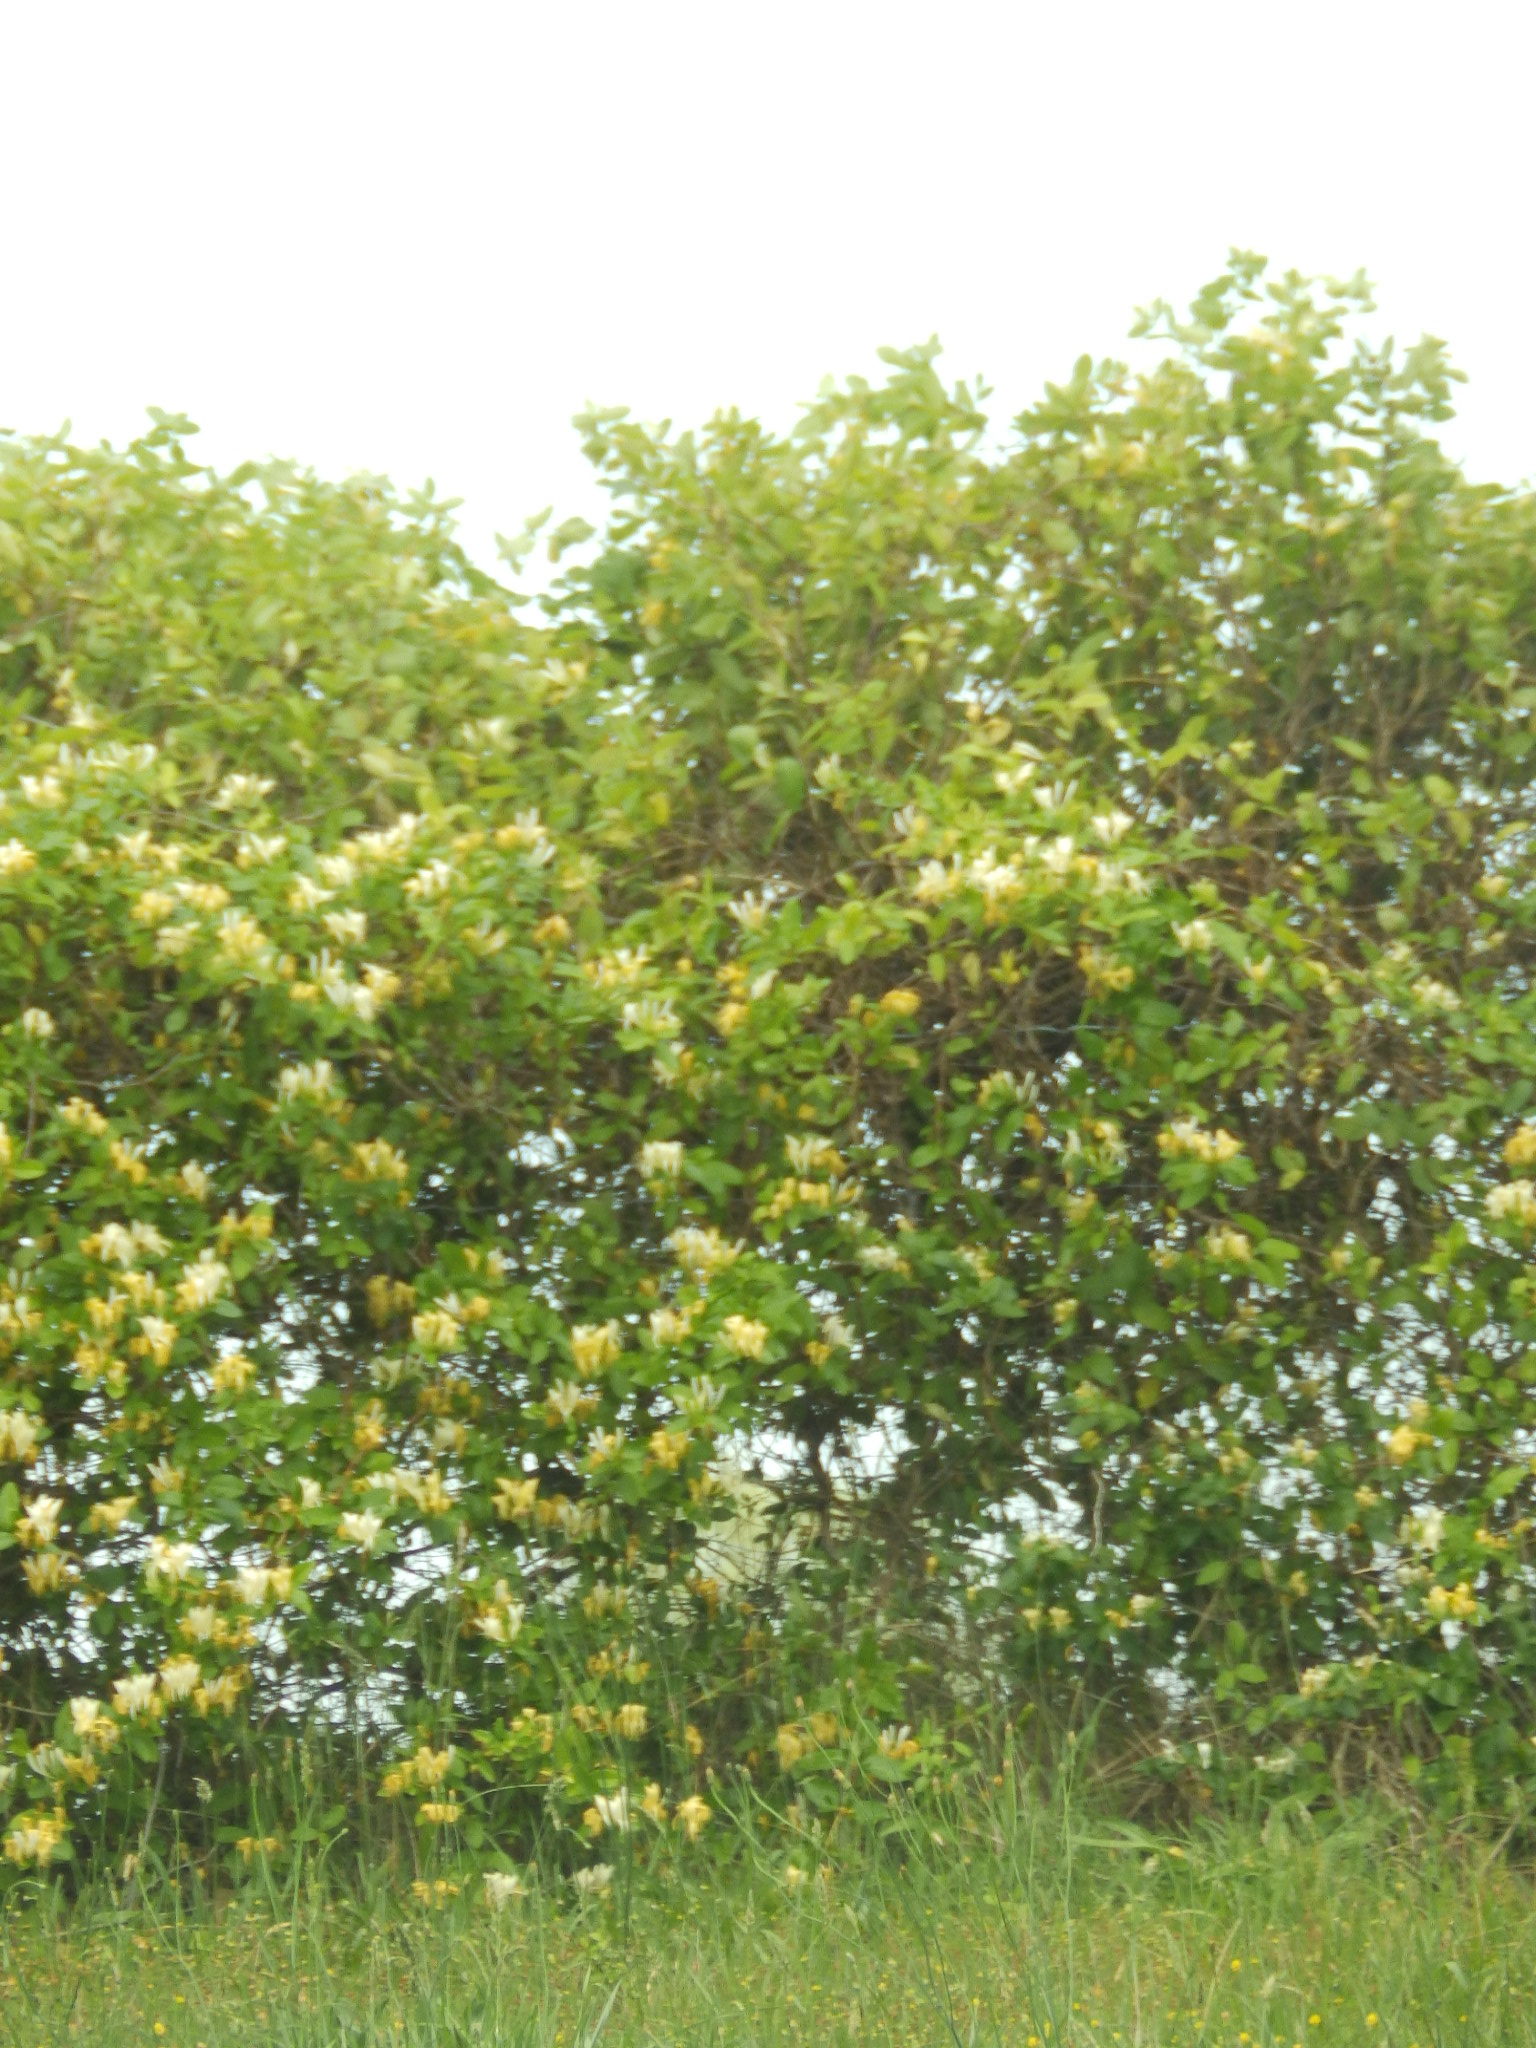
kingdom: Plantae
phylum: Tracheophyta
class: Magnoliopsida
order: Dipsacales
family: Caprifoliaceae
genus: Lonicera
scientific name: Lonicera japonica
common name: Japanese honeysuckle
